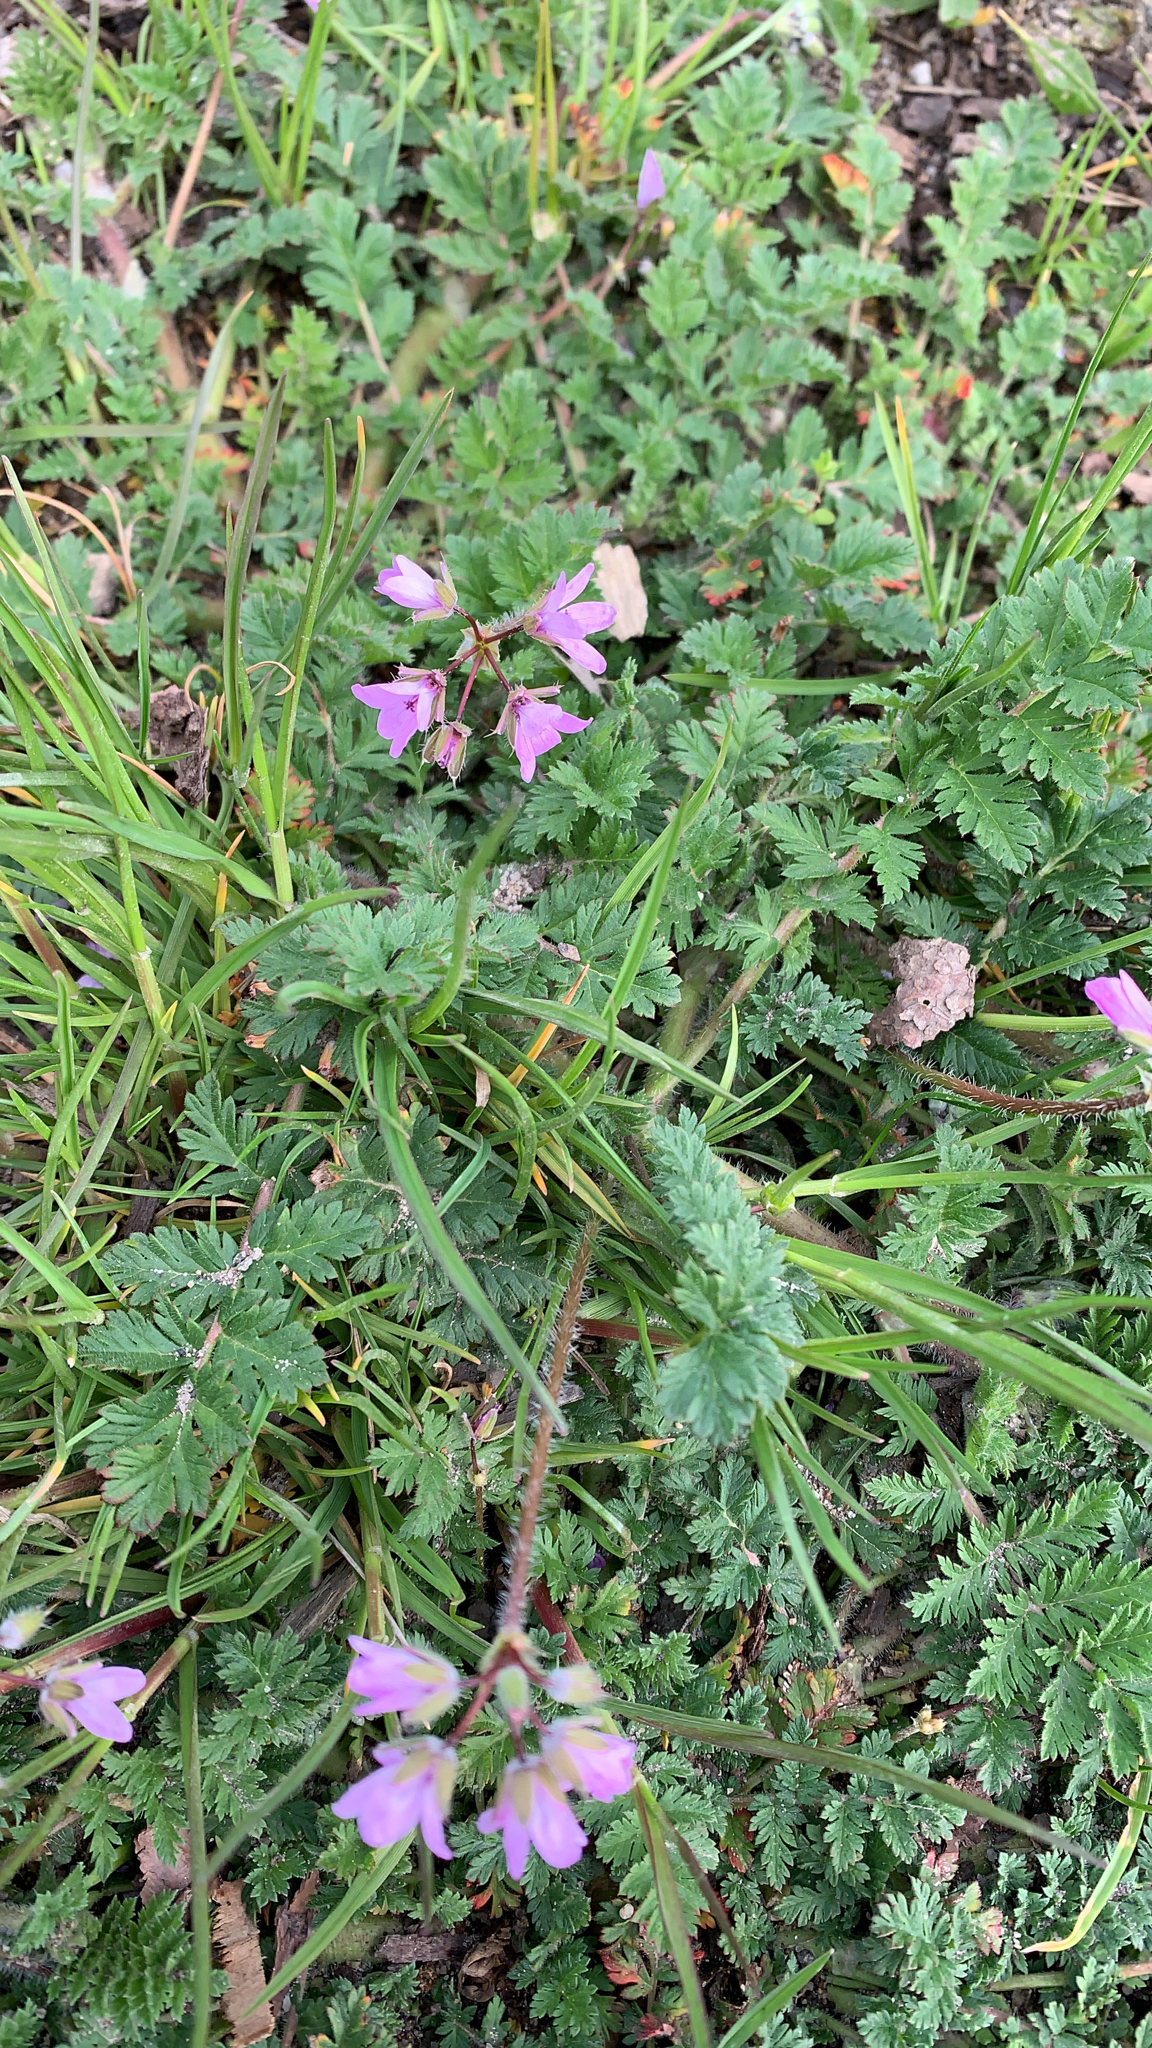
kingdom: Plantae
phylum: Tracheophyta
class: Magnoliopsida
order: Geraniales
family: Geraniaceae
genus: Erodium
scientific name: Erodium cicutarium
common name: Common stork's-bill
